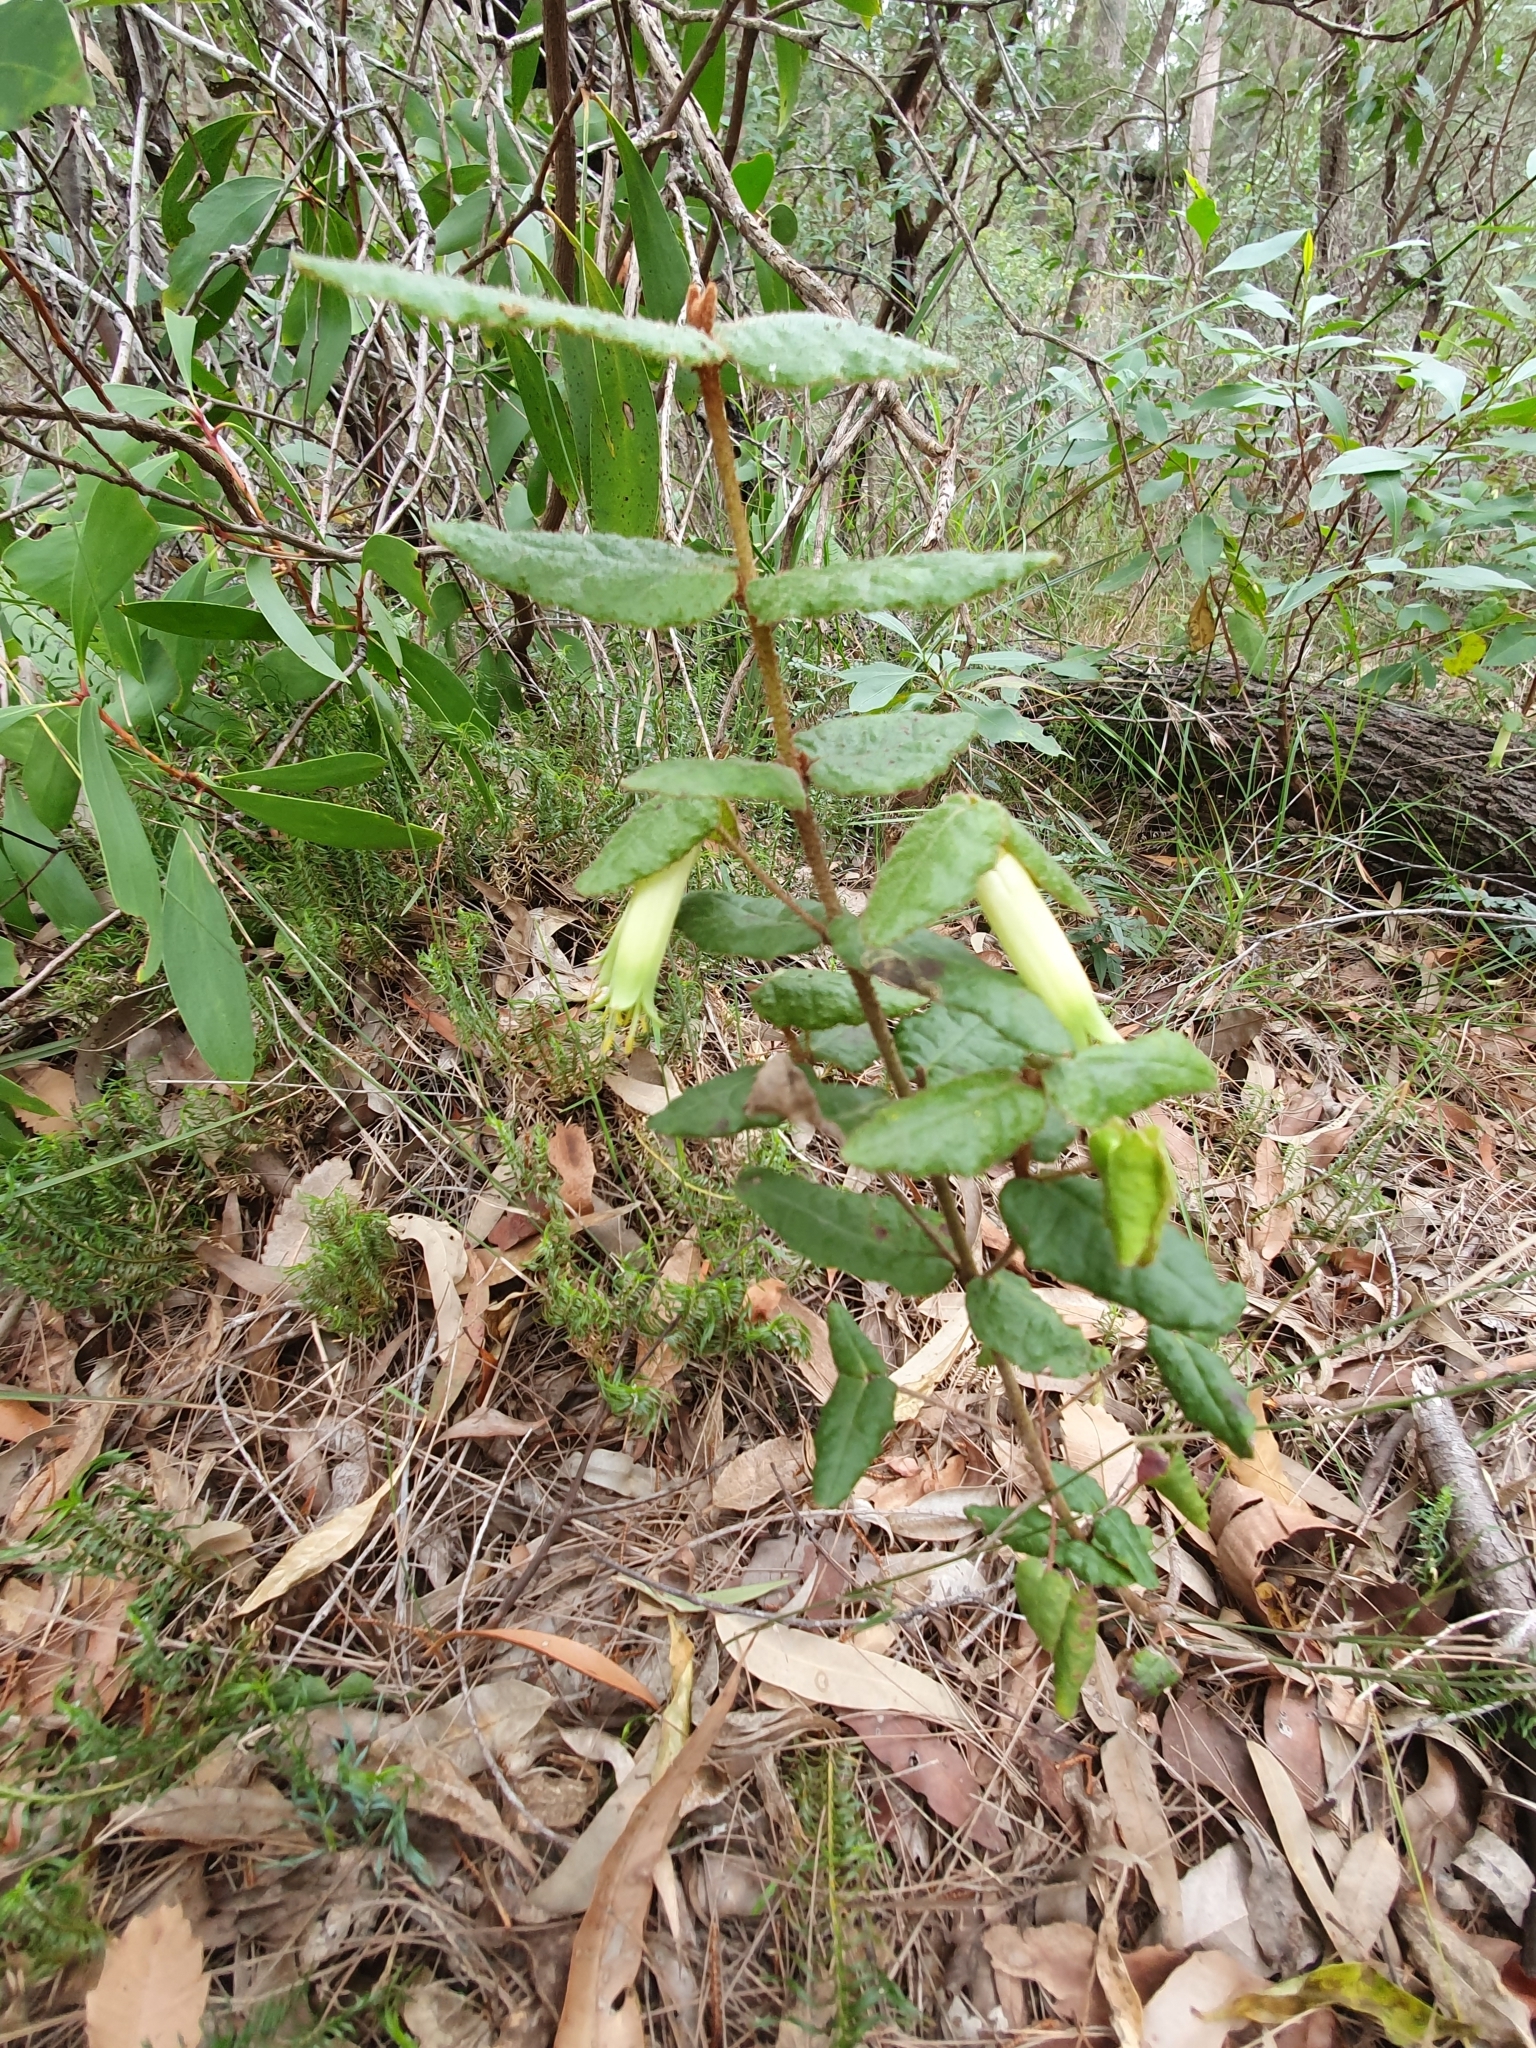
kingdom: Plantae
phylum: Tracheophyta
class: Magnoliopsida
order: Sapindales
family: Rutaceae
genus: Correa
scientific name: Correa reflexa
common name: Common correa
